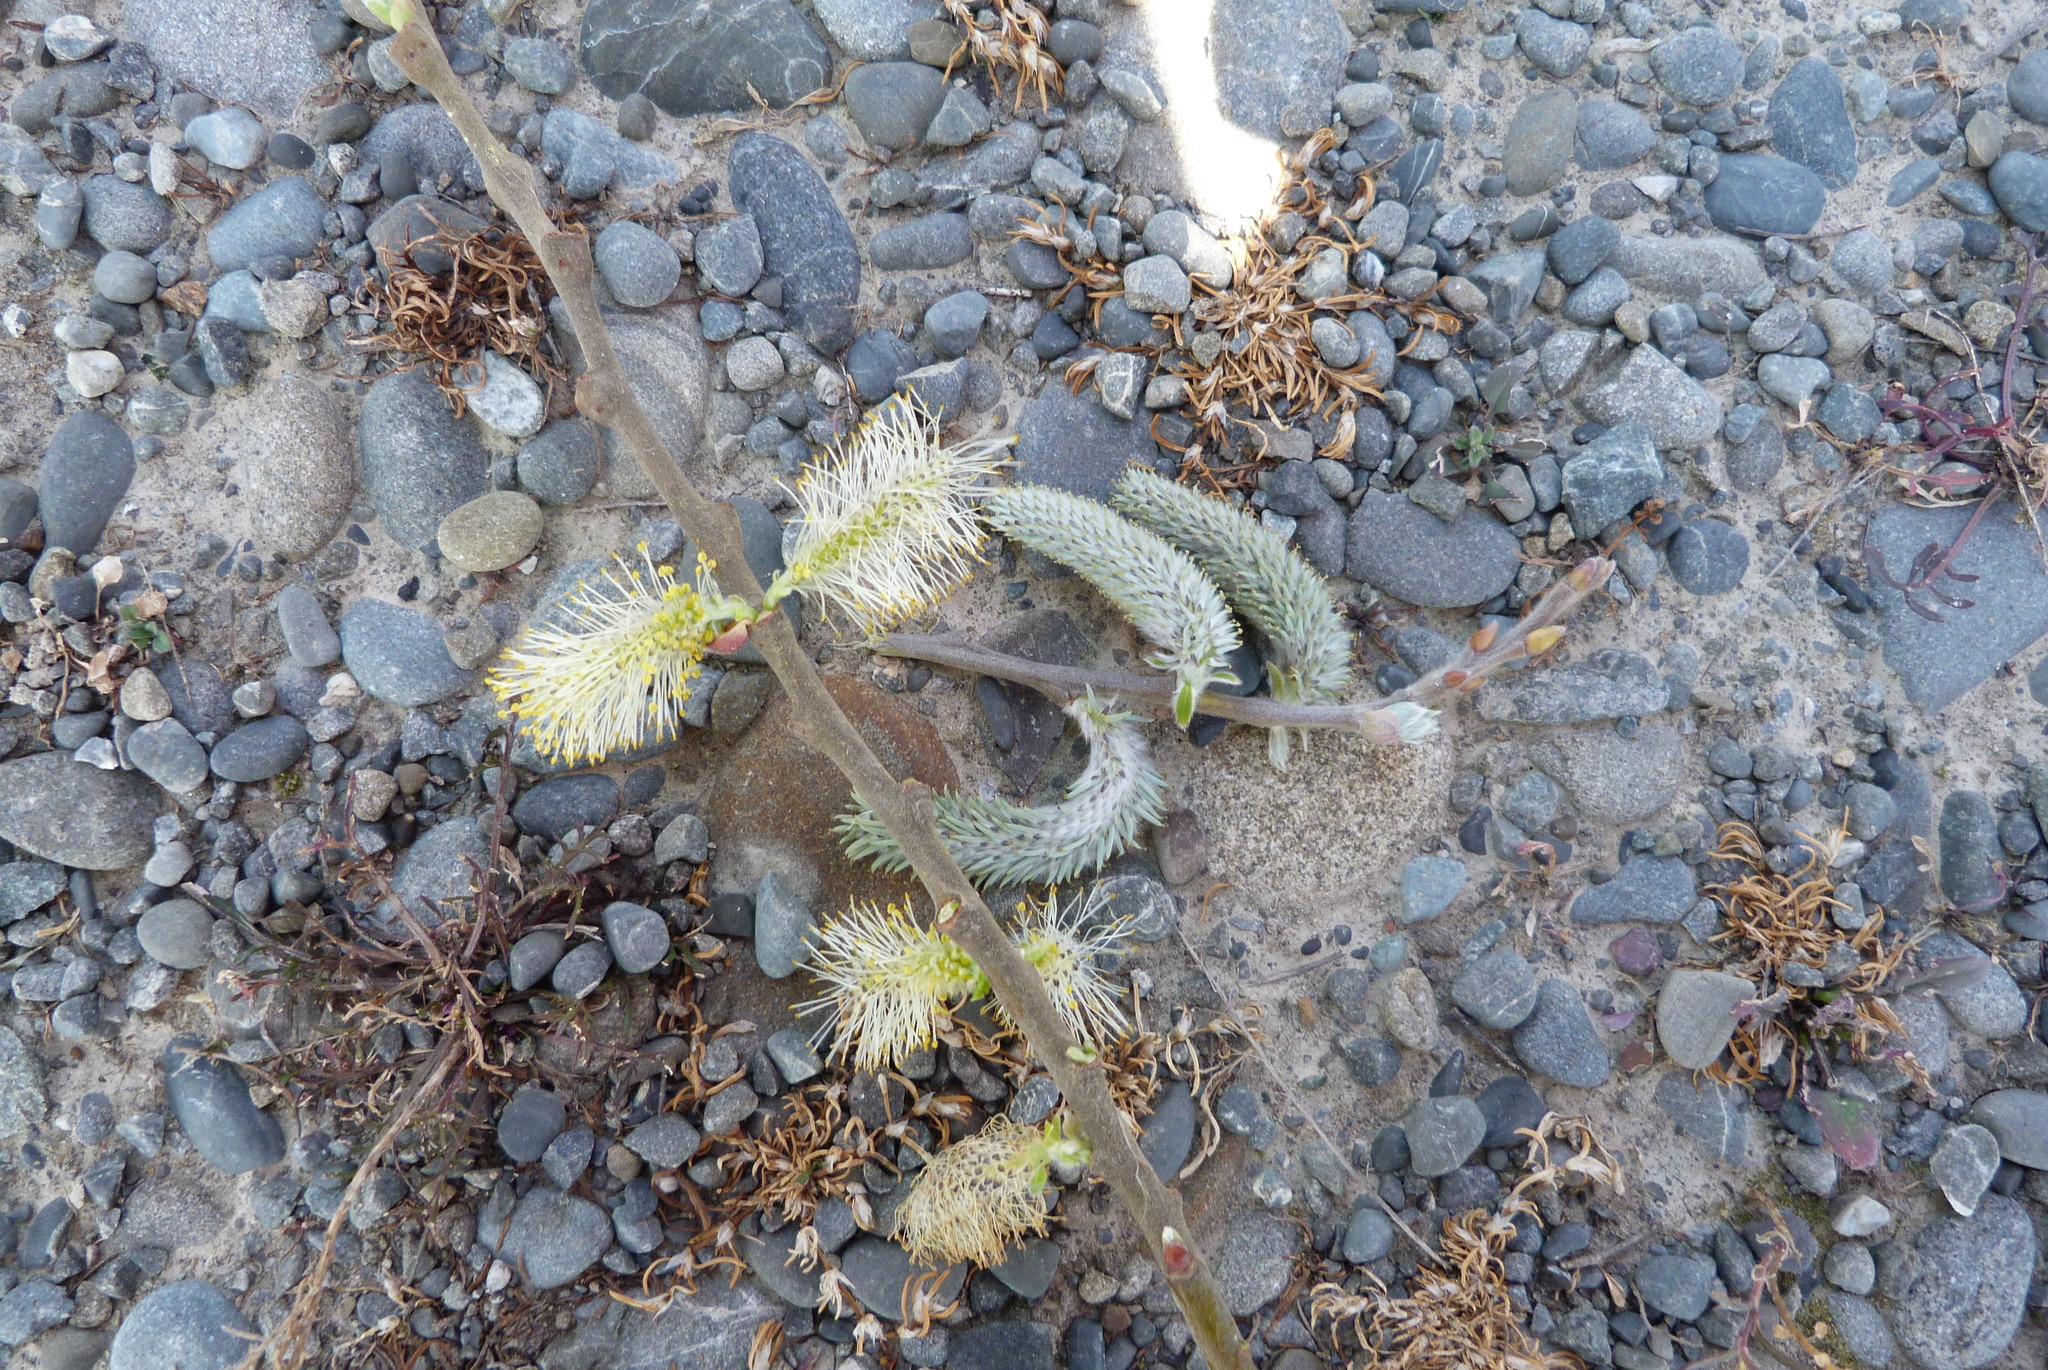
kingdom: Plantae
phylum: Tracheophyta
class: Magnoliopsida
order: Malpighiales
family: Salicaceae
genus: Salix
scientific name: Salix cinerea
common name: Common sallow
